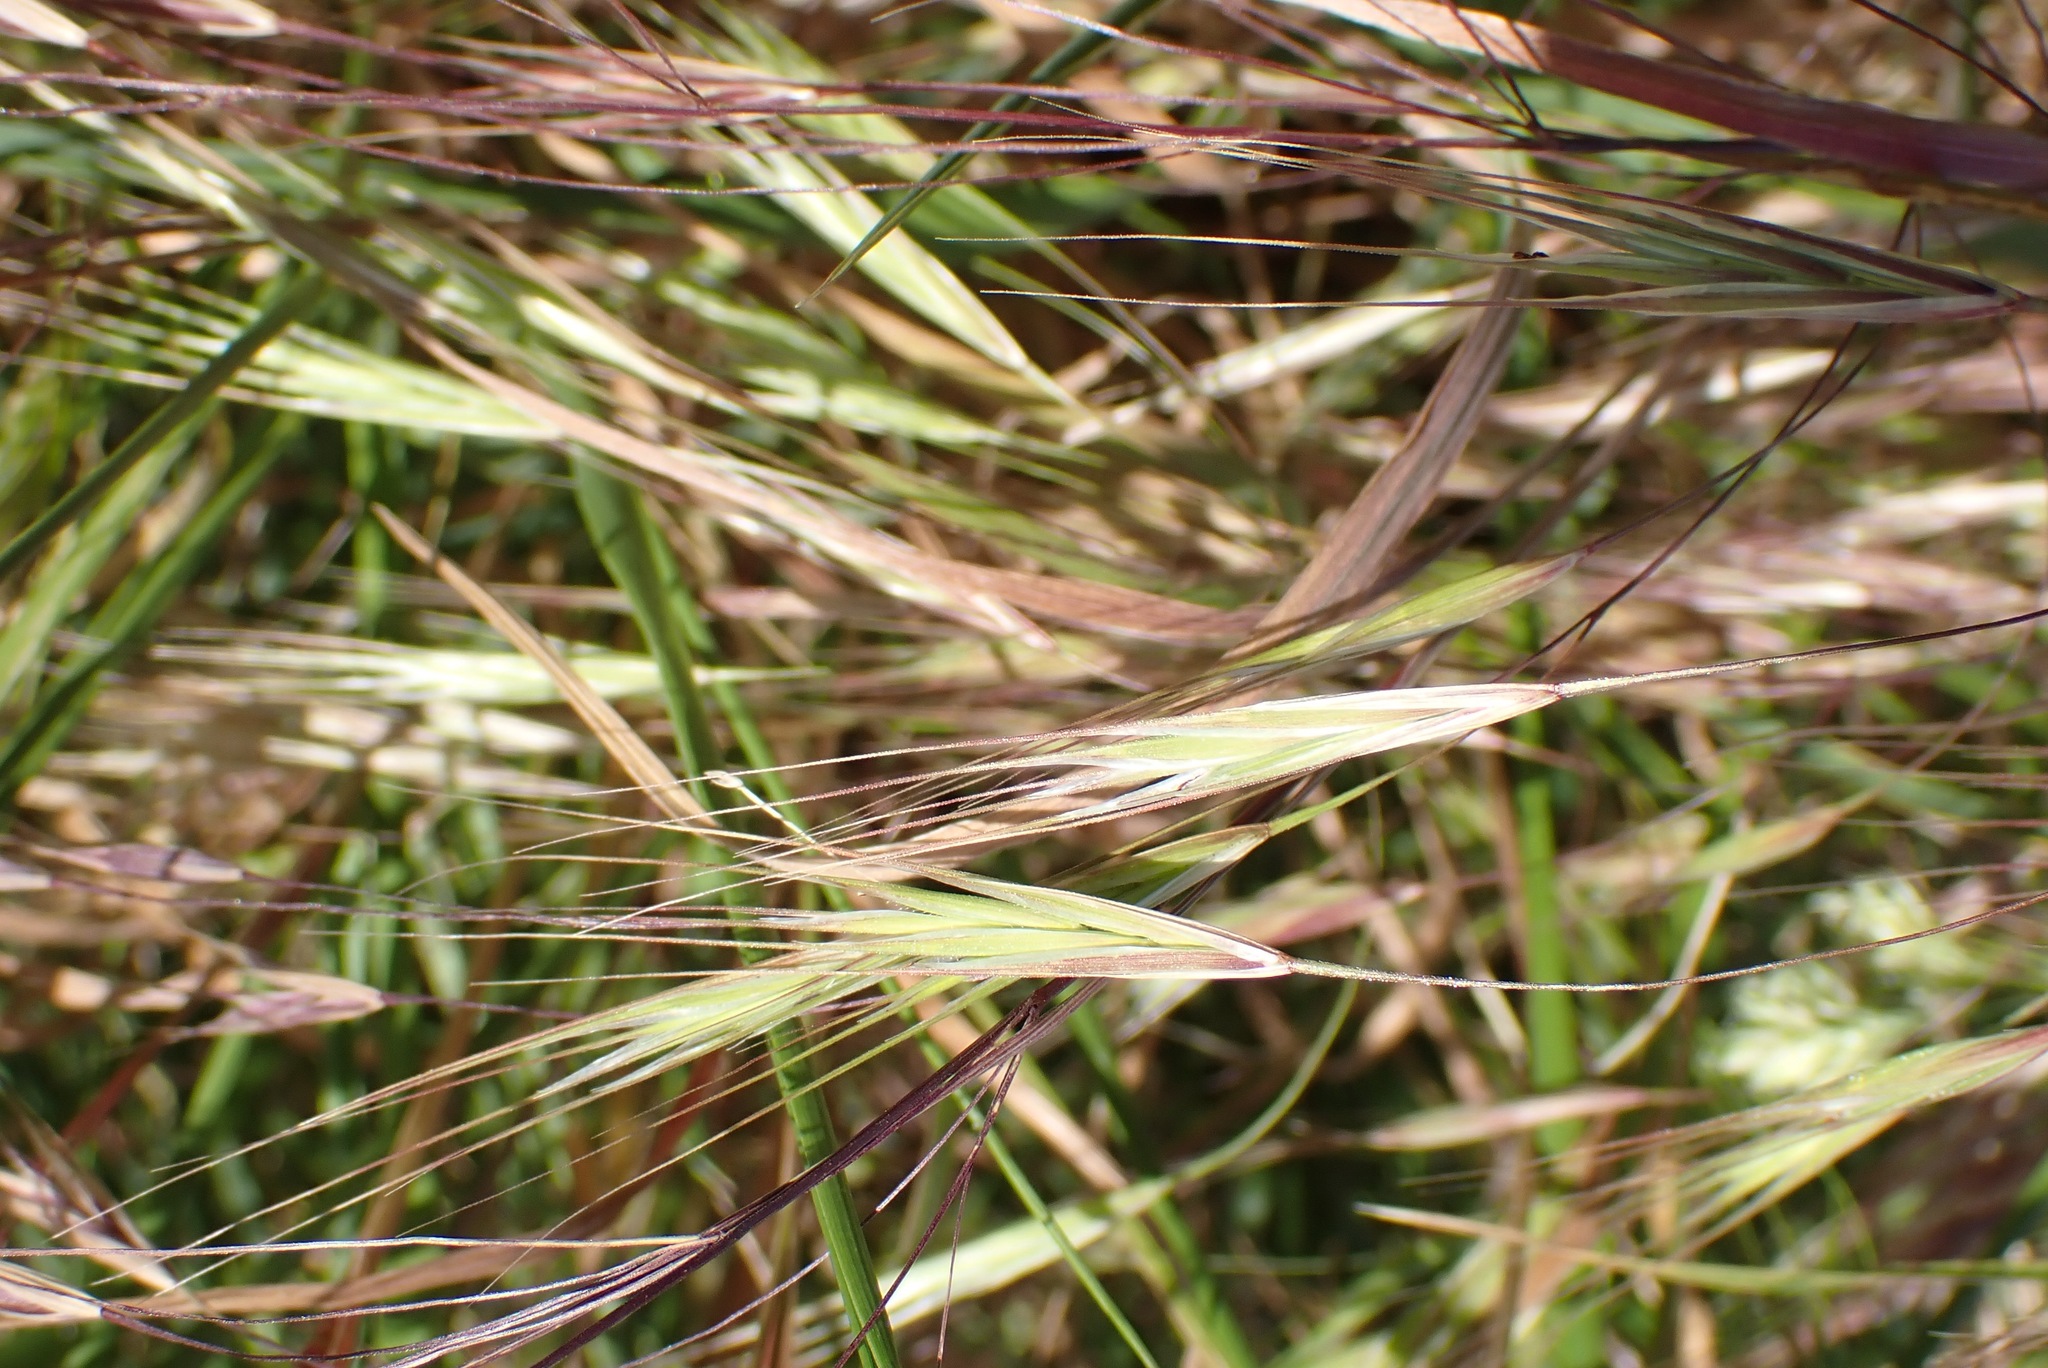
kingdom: Plantae
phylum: Tracheophyta
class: Liliopsida
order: Poales
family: Poaceae
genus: Bromus
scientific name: Bromus sterilis
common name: Poverty brome
